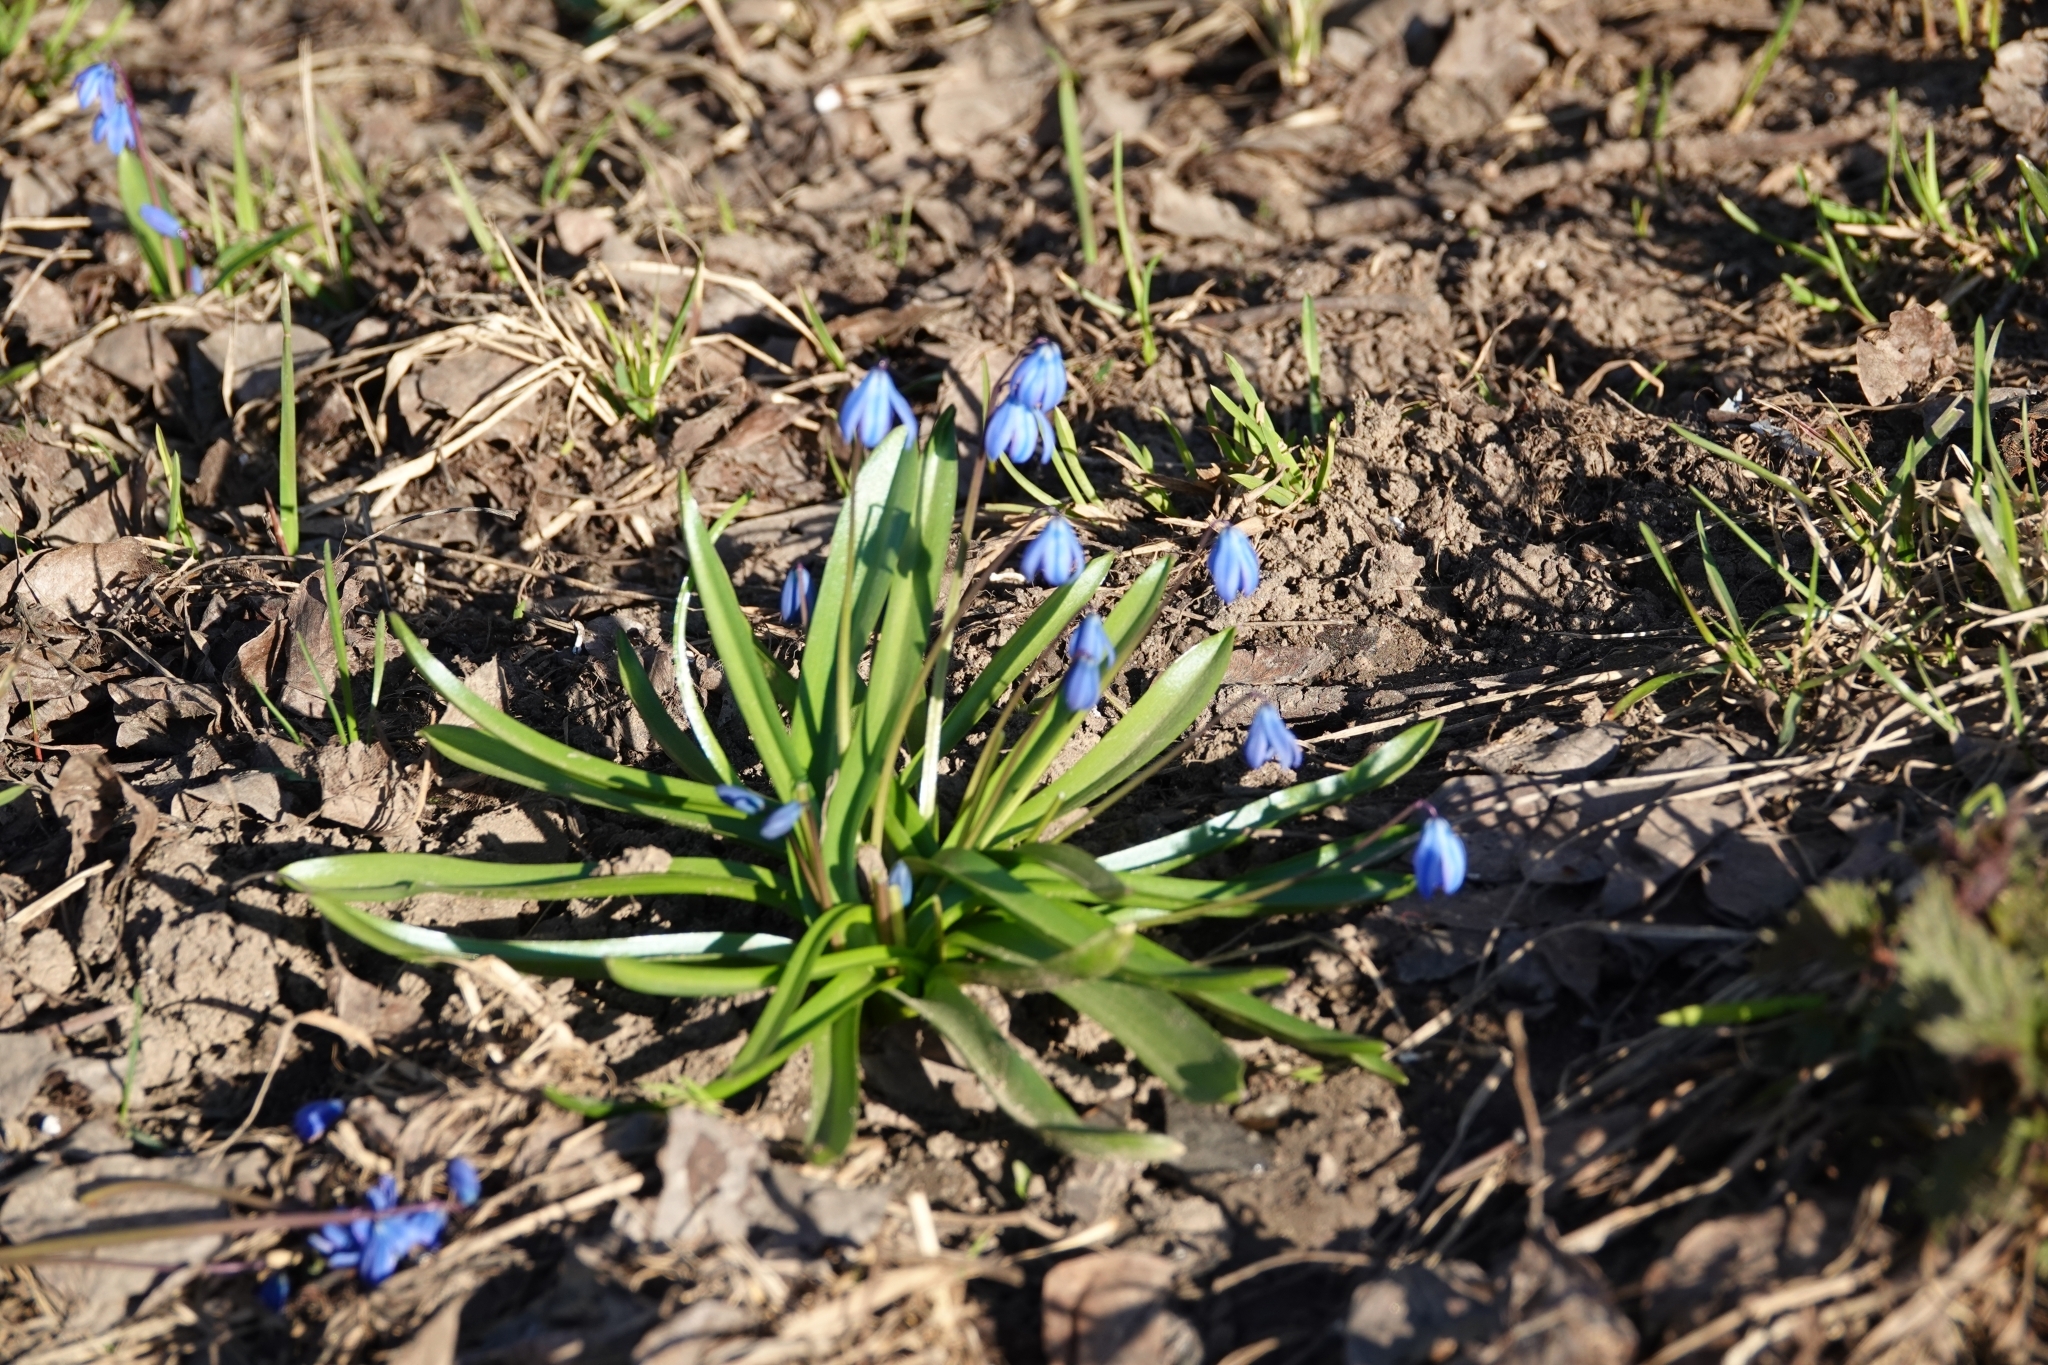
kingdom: Plantae
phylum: Tracheophyta
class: Liliopsida
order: Asparagales
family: Asparagaceae
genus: Scilla
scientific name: Scilla siberica
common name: Siberian squill
